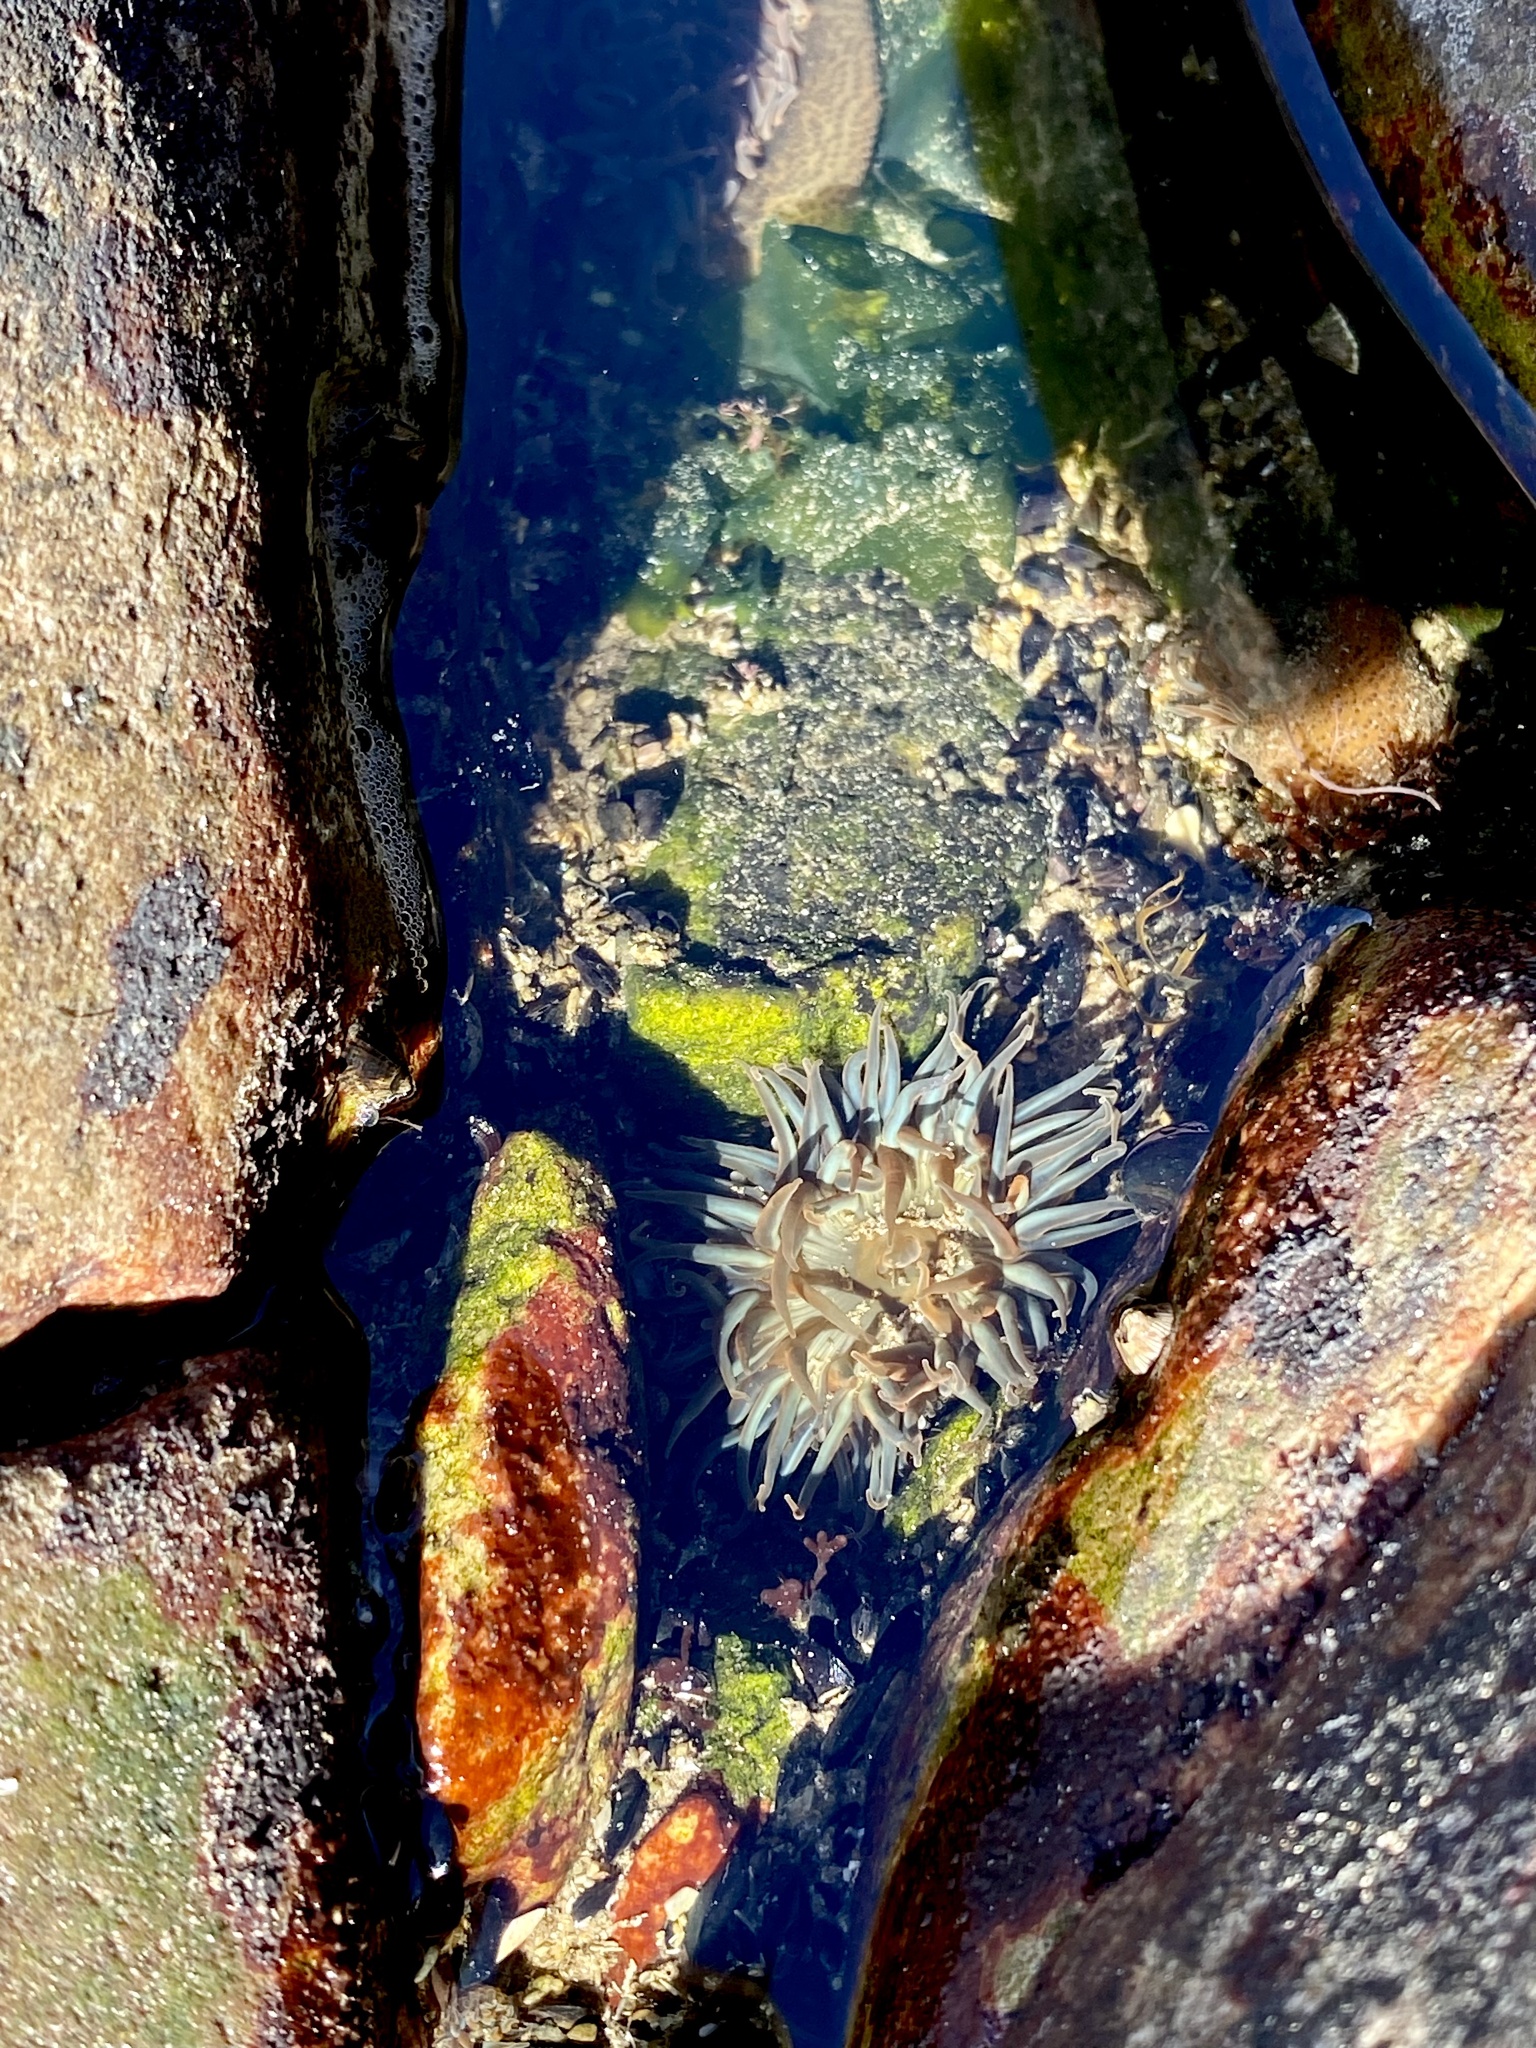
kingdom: Animalia
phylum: Cnidaria
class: Anthozoa
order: Actiniaria
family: Actiniidae
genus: Bunodosoma
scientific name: Bunodosoma zamponii
